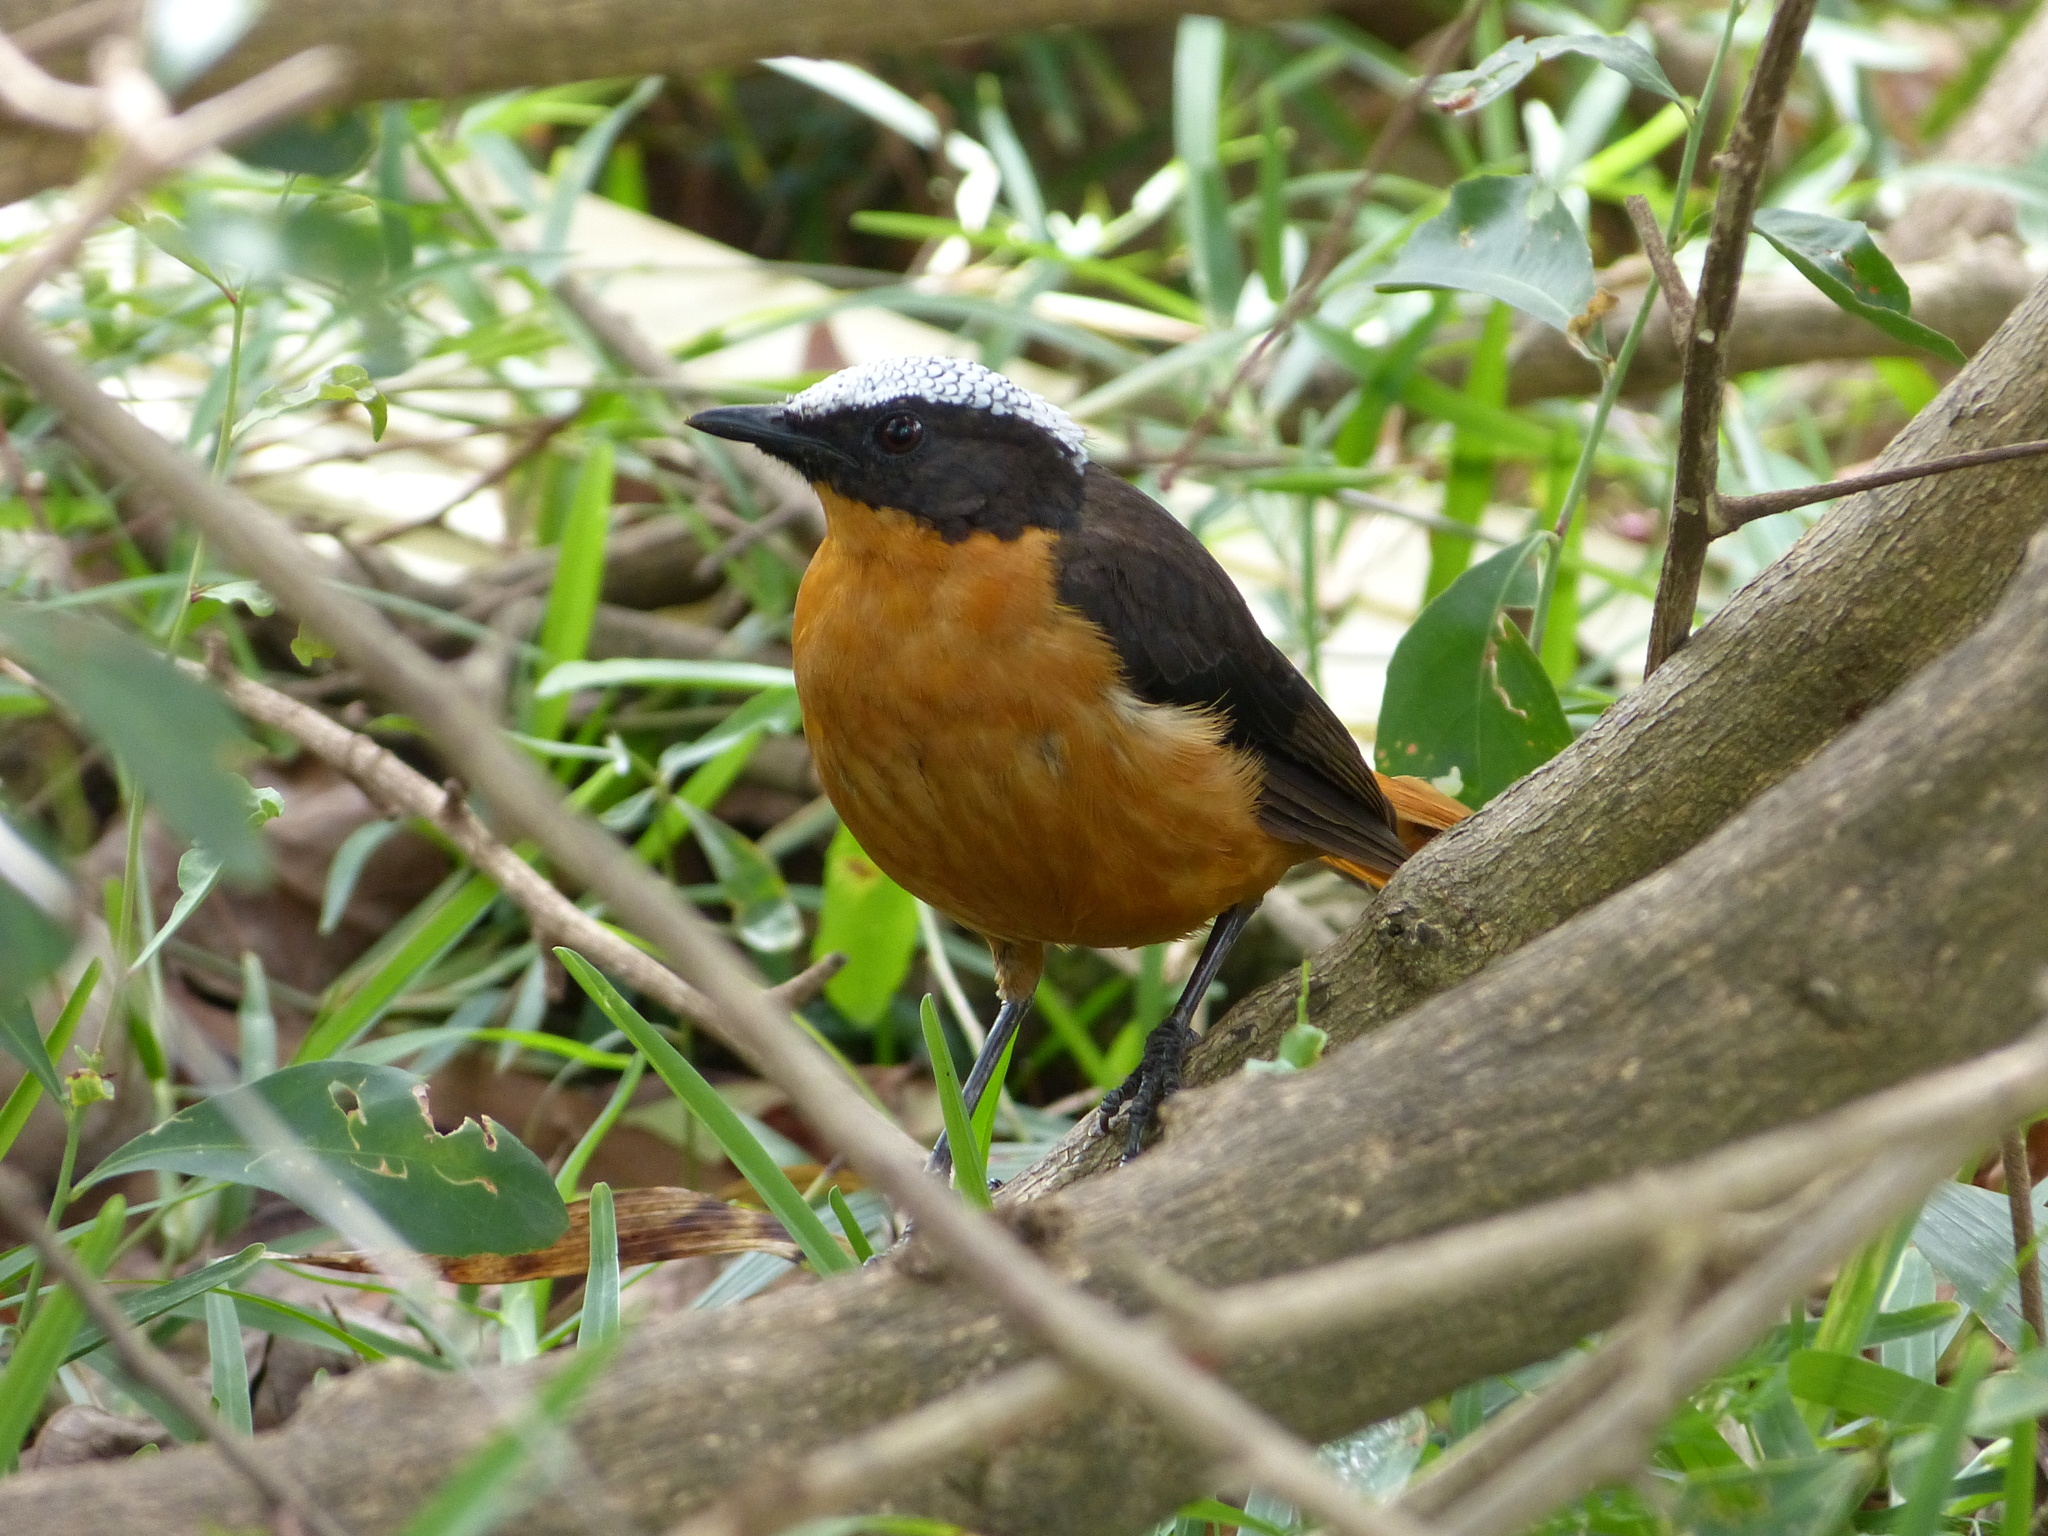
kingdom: Animalia
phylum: Chordata
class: Aves
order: Passeriformes
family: Muscicapidae
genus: Cossypha
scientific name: Cossypha albicapillus
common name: White-crowned robin-chat
